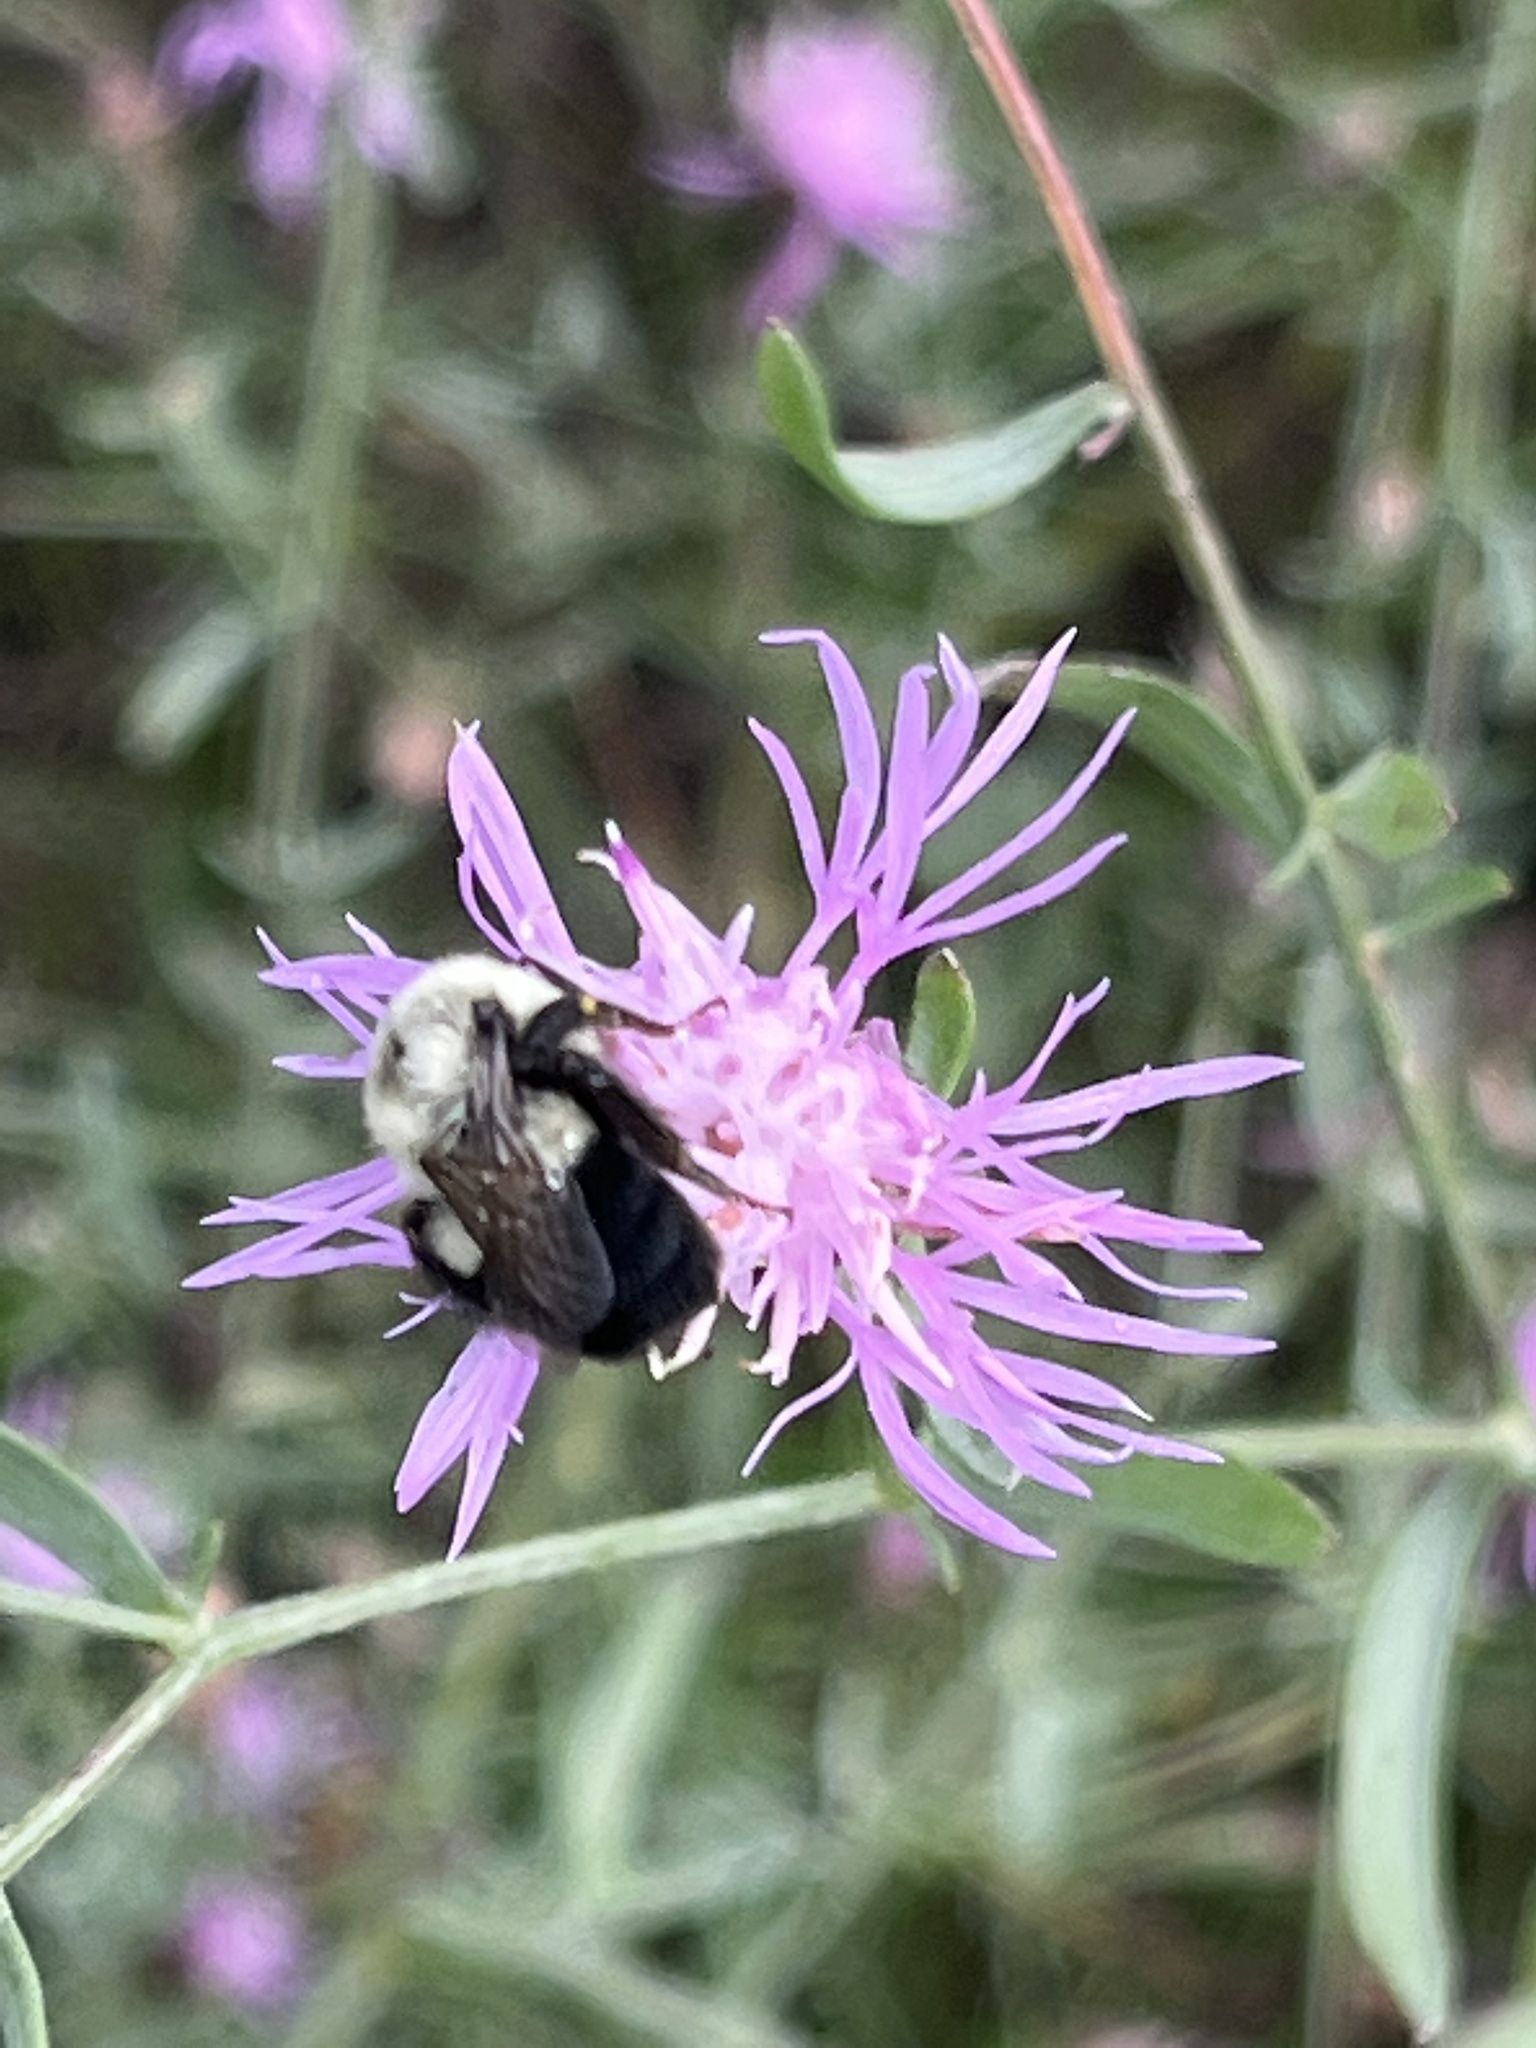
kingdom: Animalia
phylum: Arthropoda
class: Insecta
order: Hymenoptera
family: Apidae
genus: Bombus
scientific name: Bombus impatiens
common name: Common eastern bumble bee
